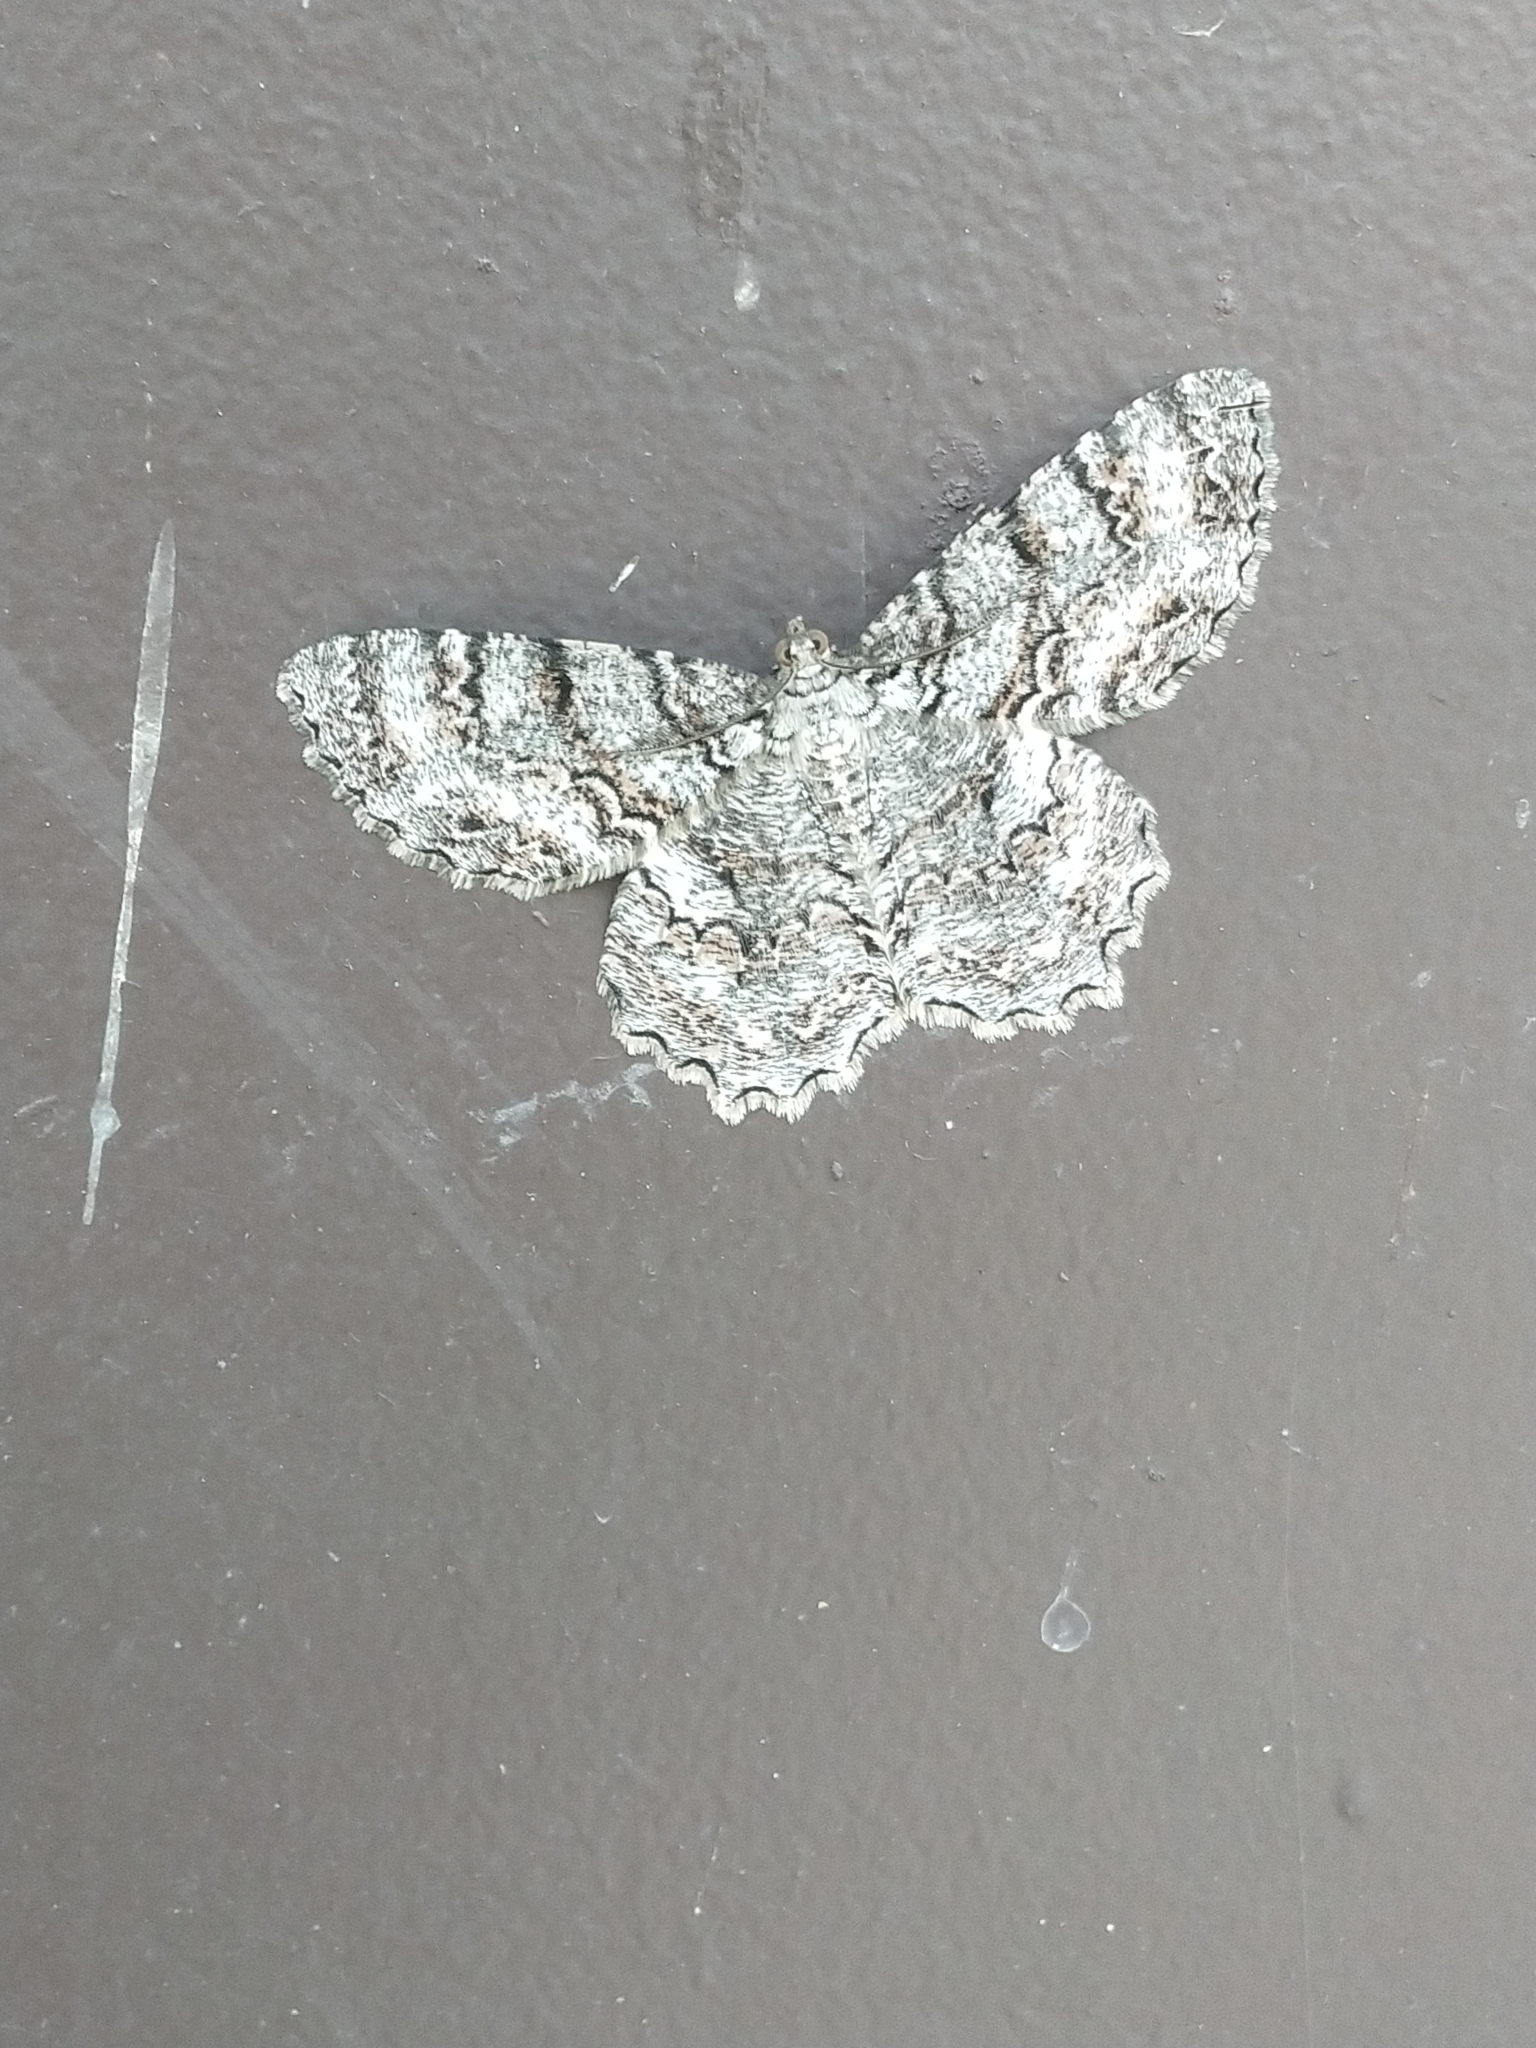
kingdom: Animalia
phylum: Arthropoda
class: Insecta
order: Lepidoptera
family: Geometridae
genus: Epimecis
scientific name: Epimecis hortaria
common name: Tulip-tree beauty
